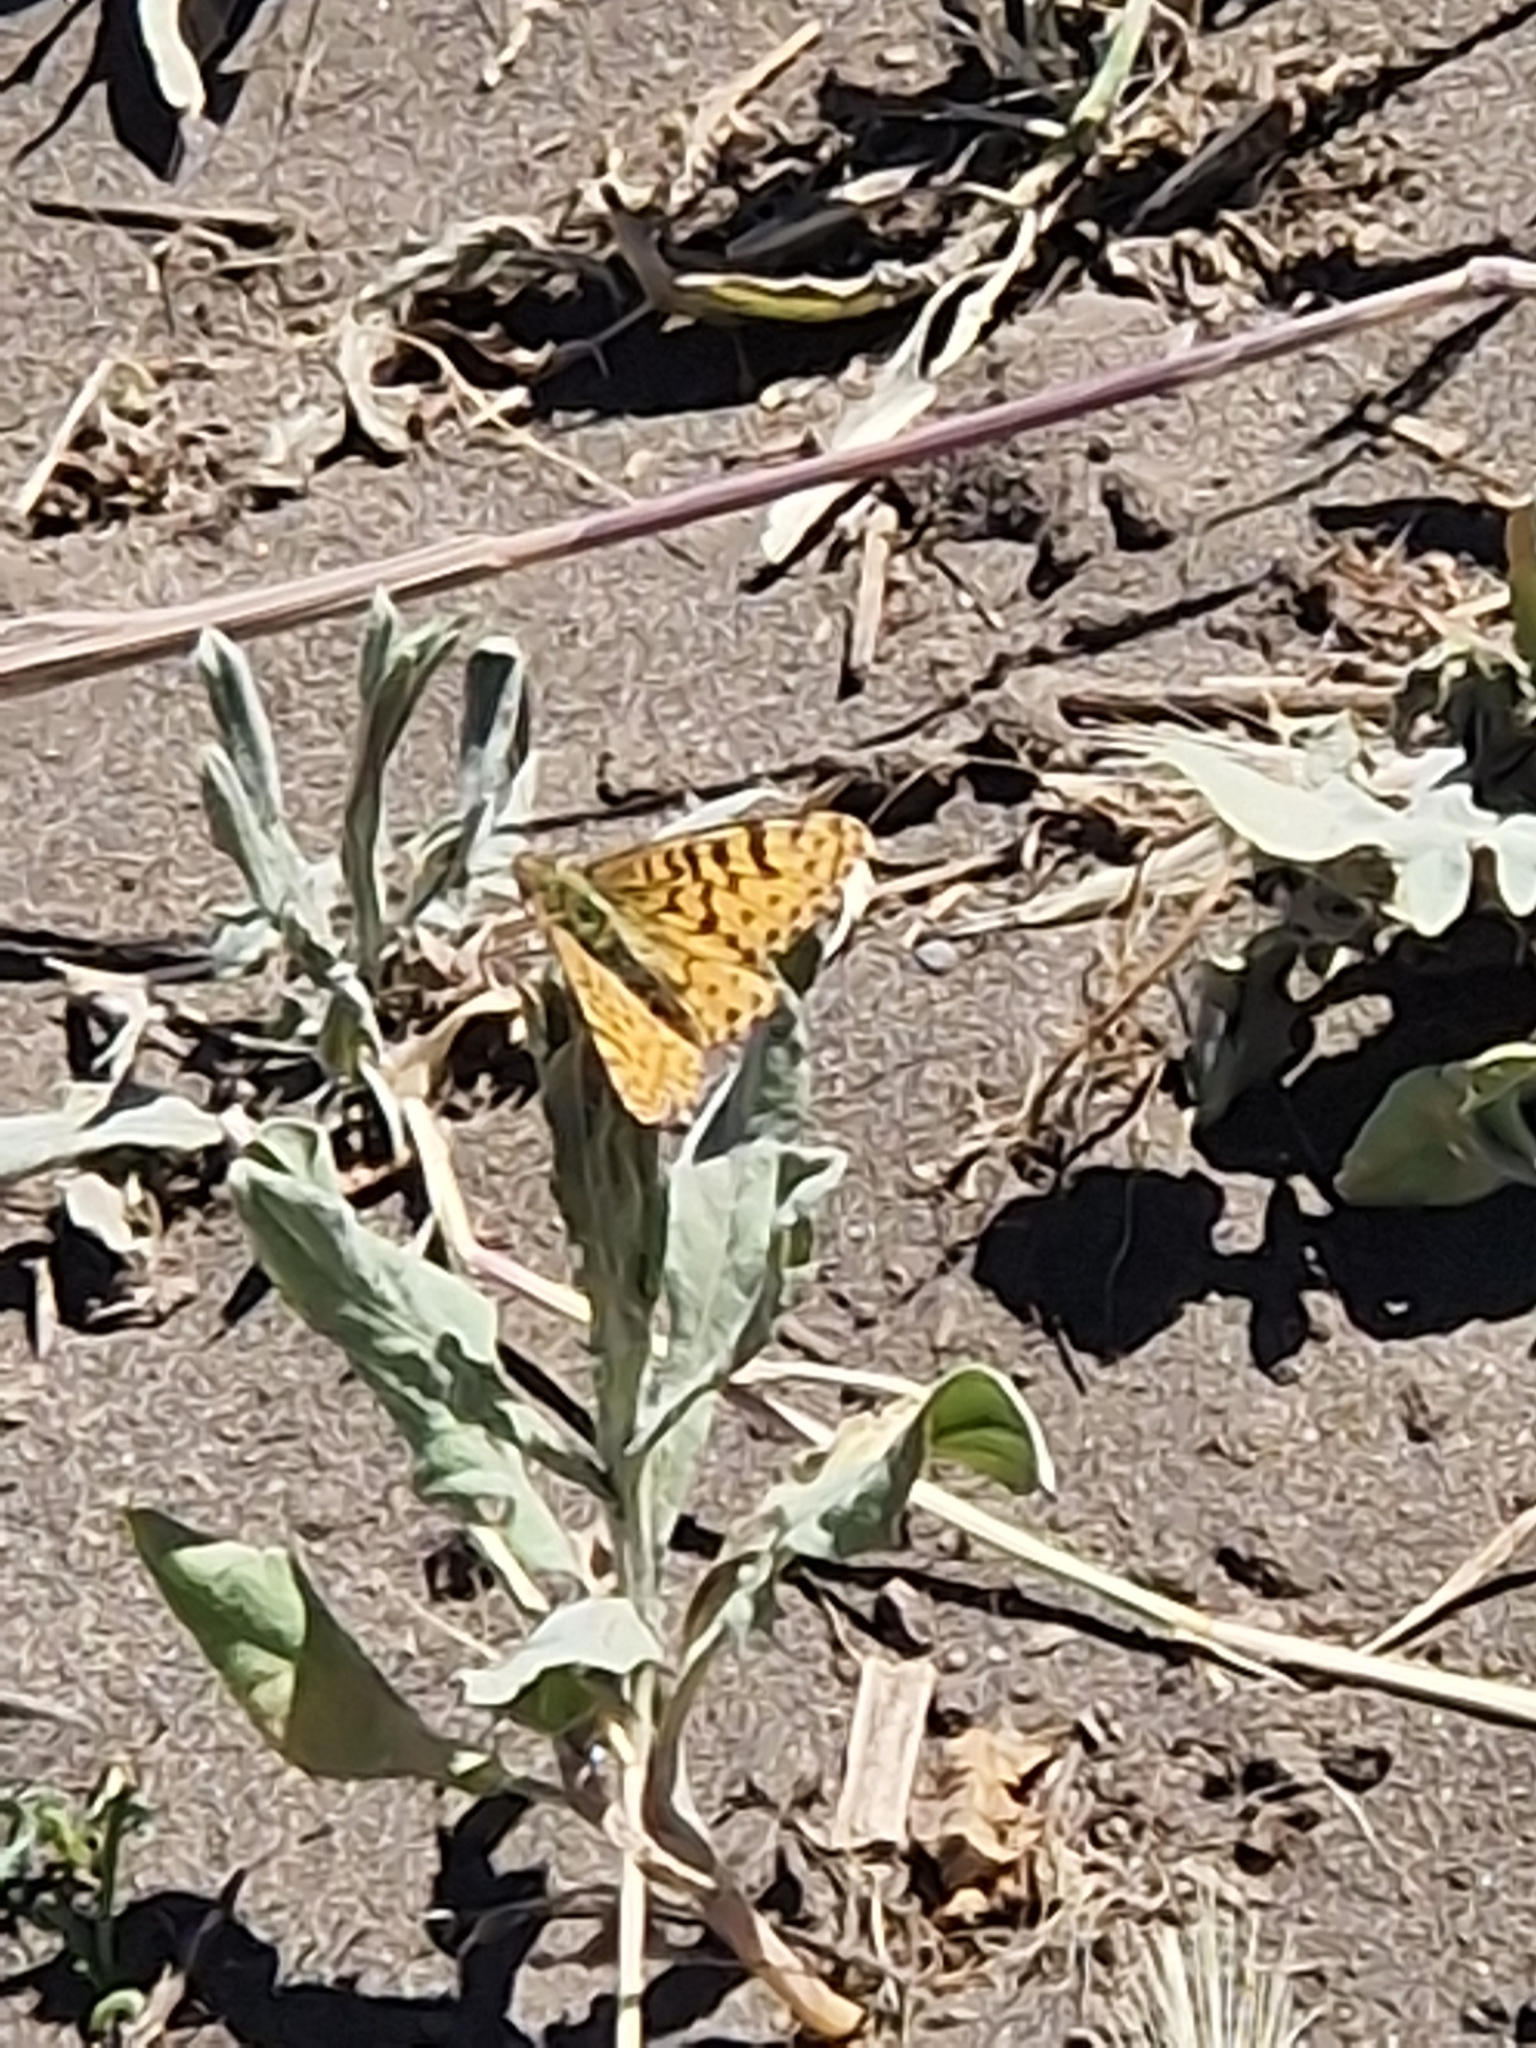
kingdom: Animalia
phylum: Arthropoda
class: Insecta
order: Lepidoptera
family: Nymphalidae
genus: Issoria
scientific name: Issoria Yramea lathonoides
